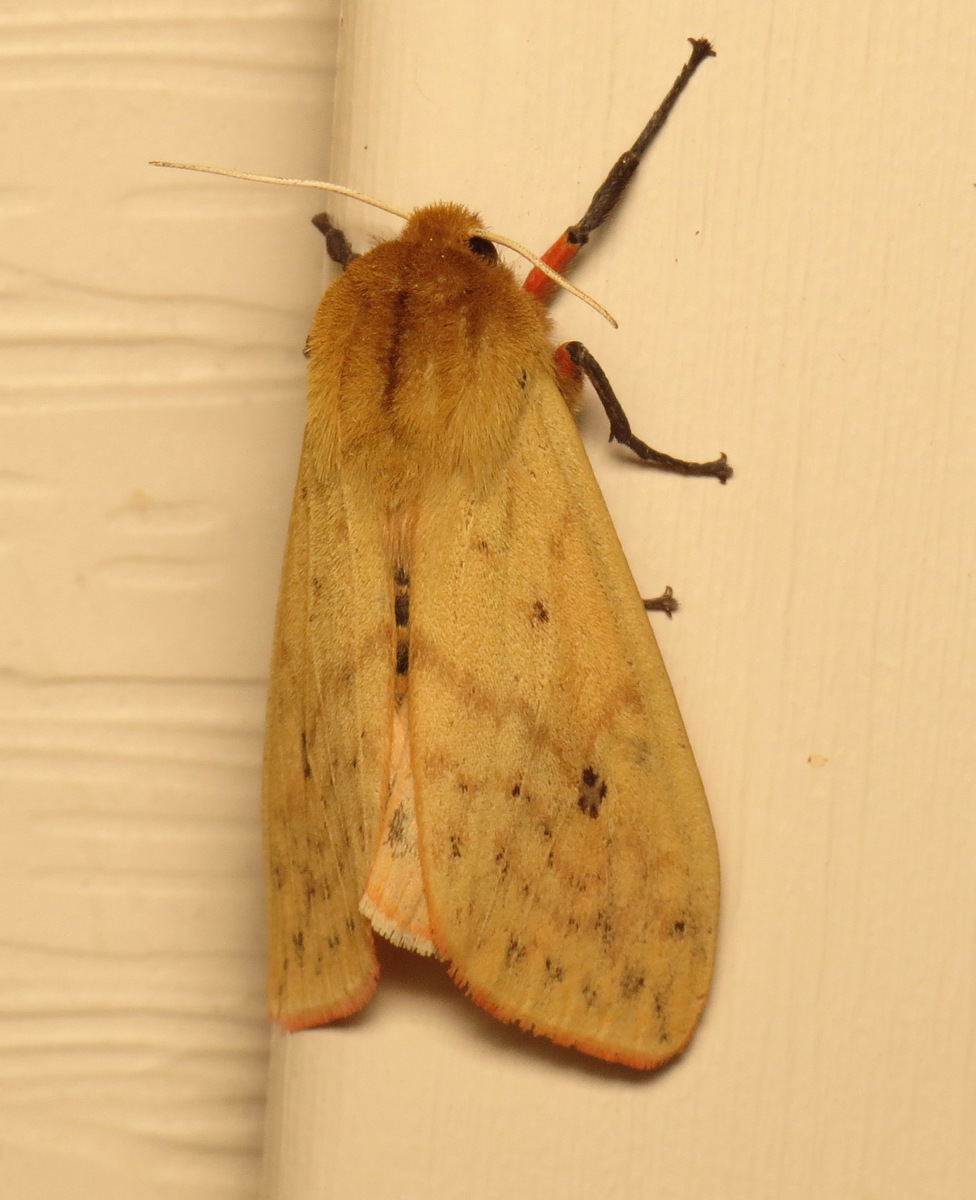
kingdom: Animalia
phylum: Arthropoda
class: Insecta
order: Lepidoptera
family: Erebidae
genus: Pyrrharctia
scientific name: Pyrrharctia isabella
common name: Isabella tiger moth
